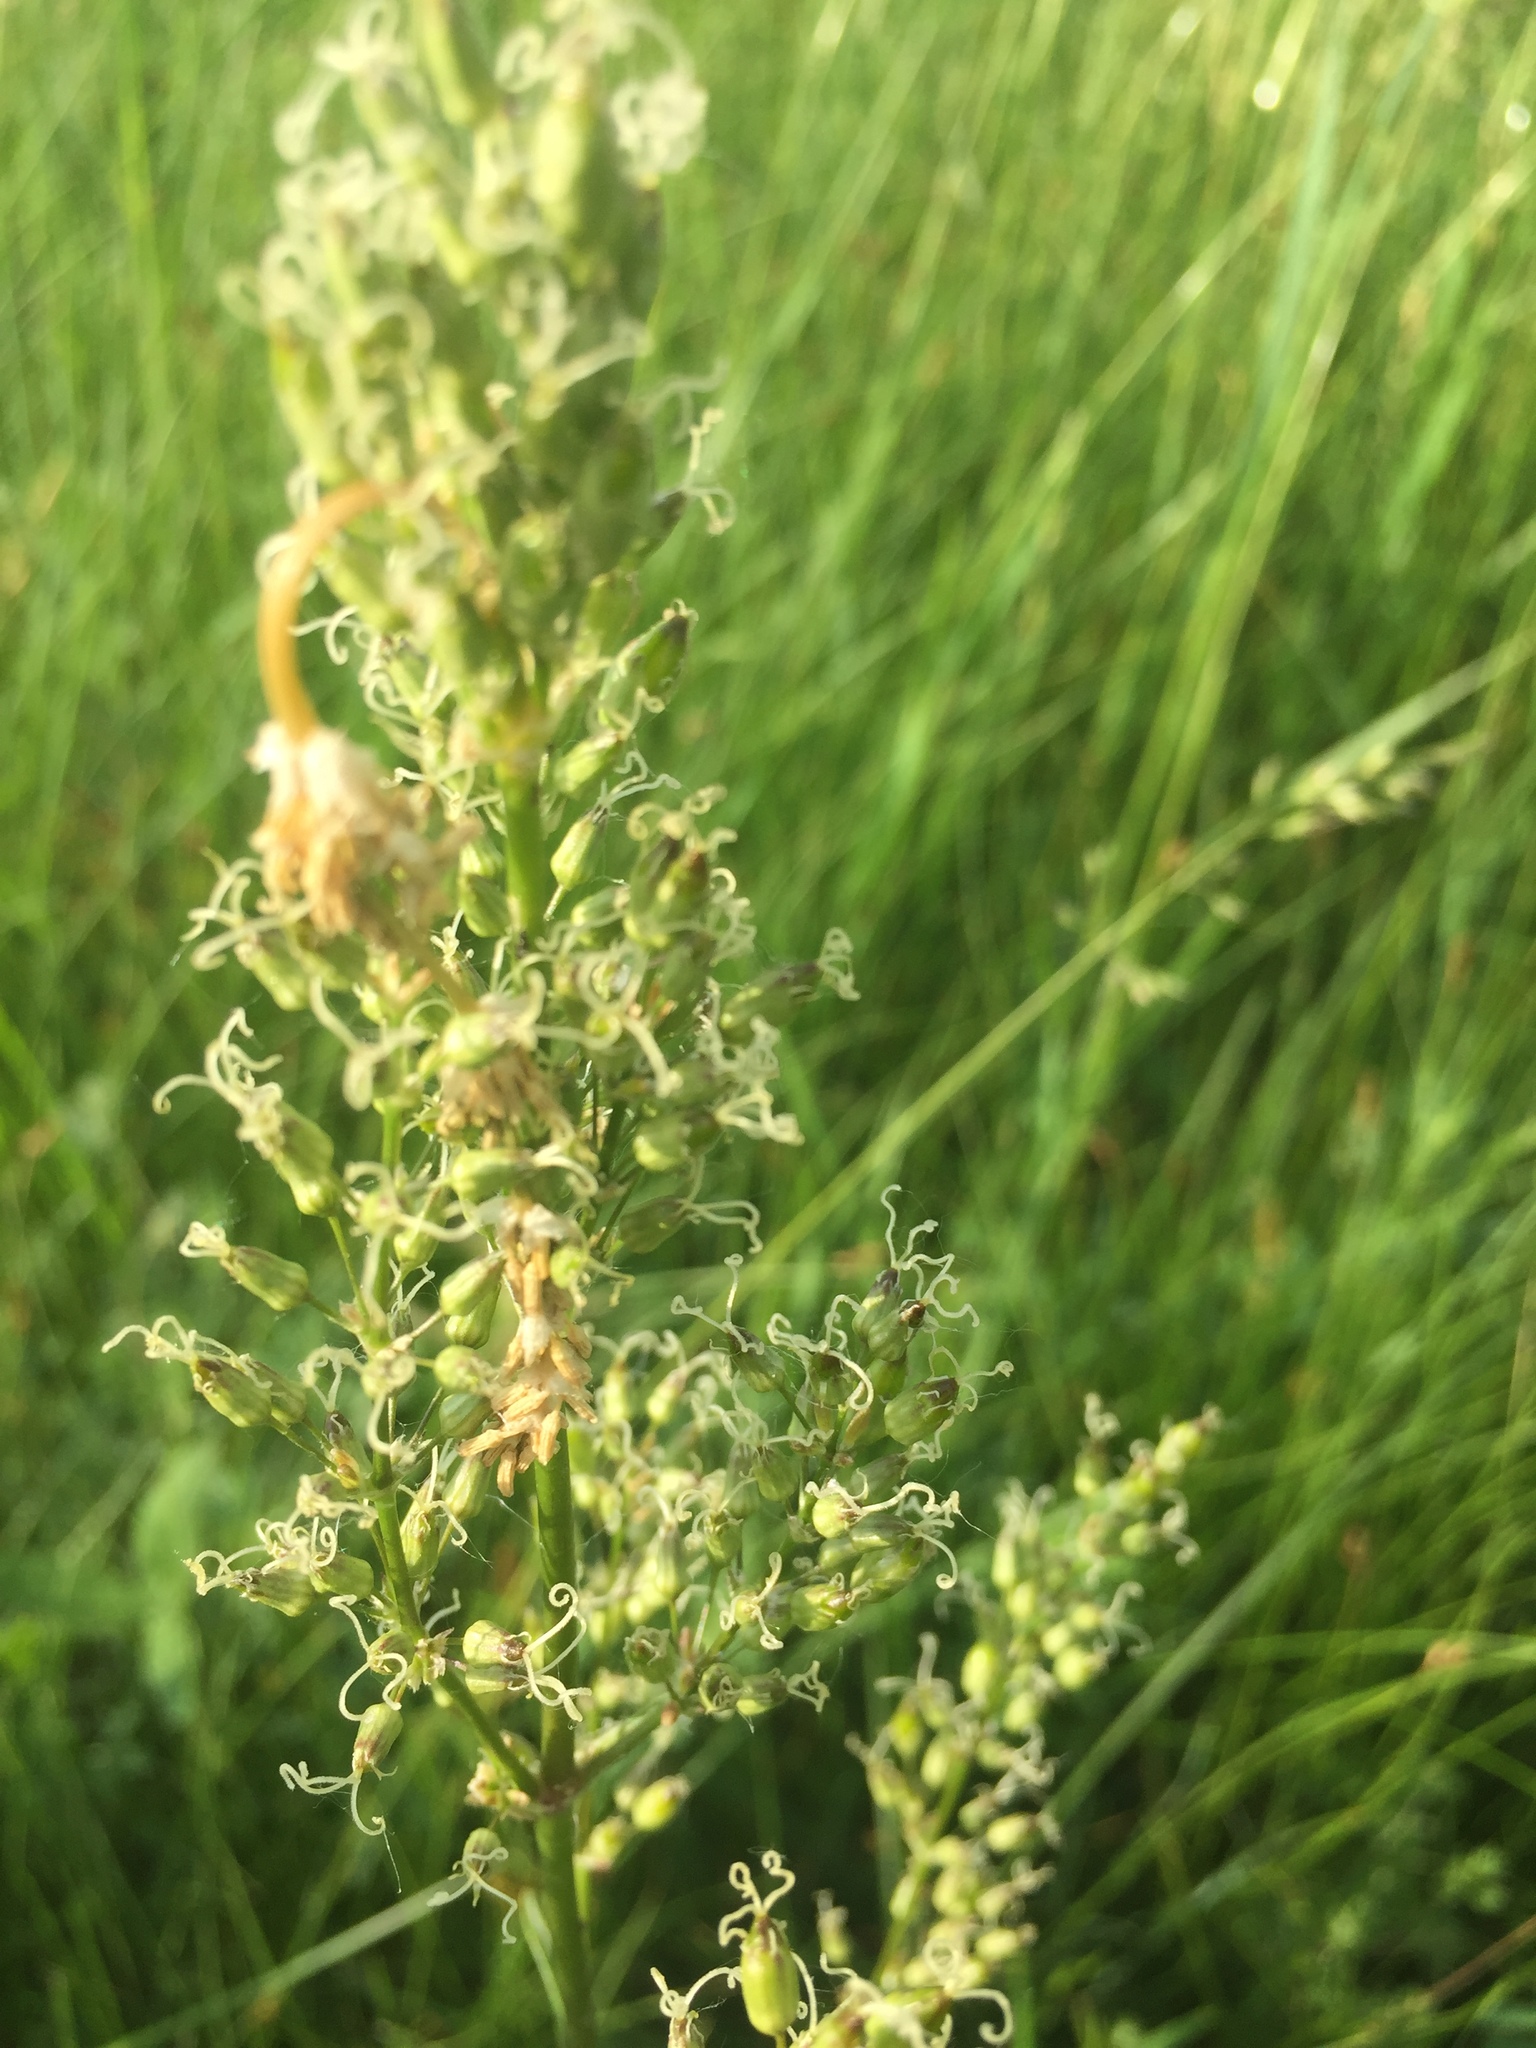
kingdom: Plantae
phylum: Tracheophyta
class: Magnoliopsida
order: Caryophyllales
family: Caryophyllaceae
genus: Silene
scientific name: Silene borysthenica
